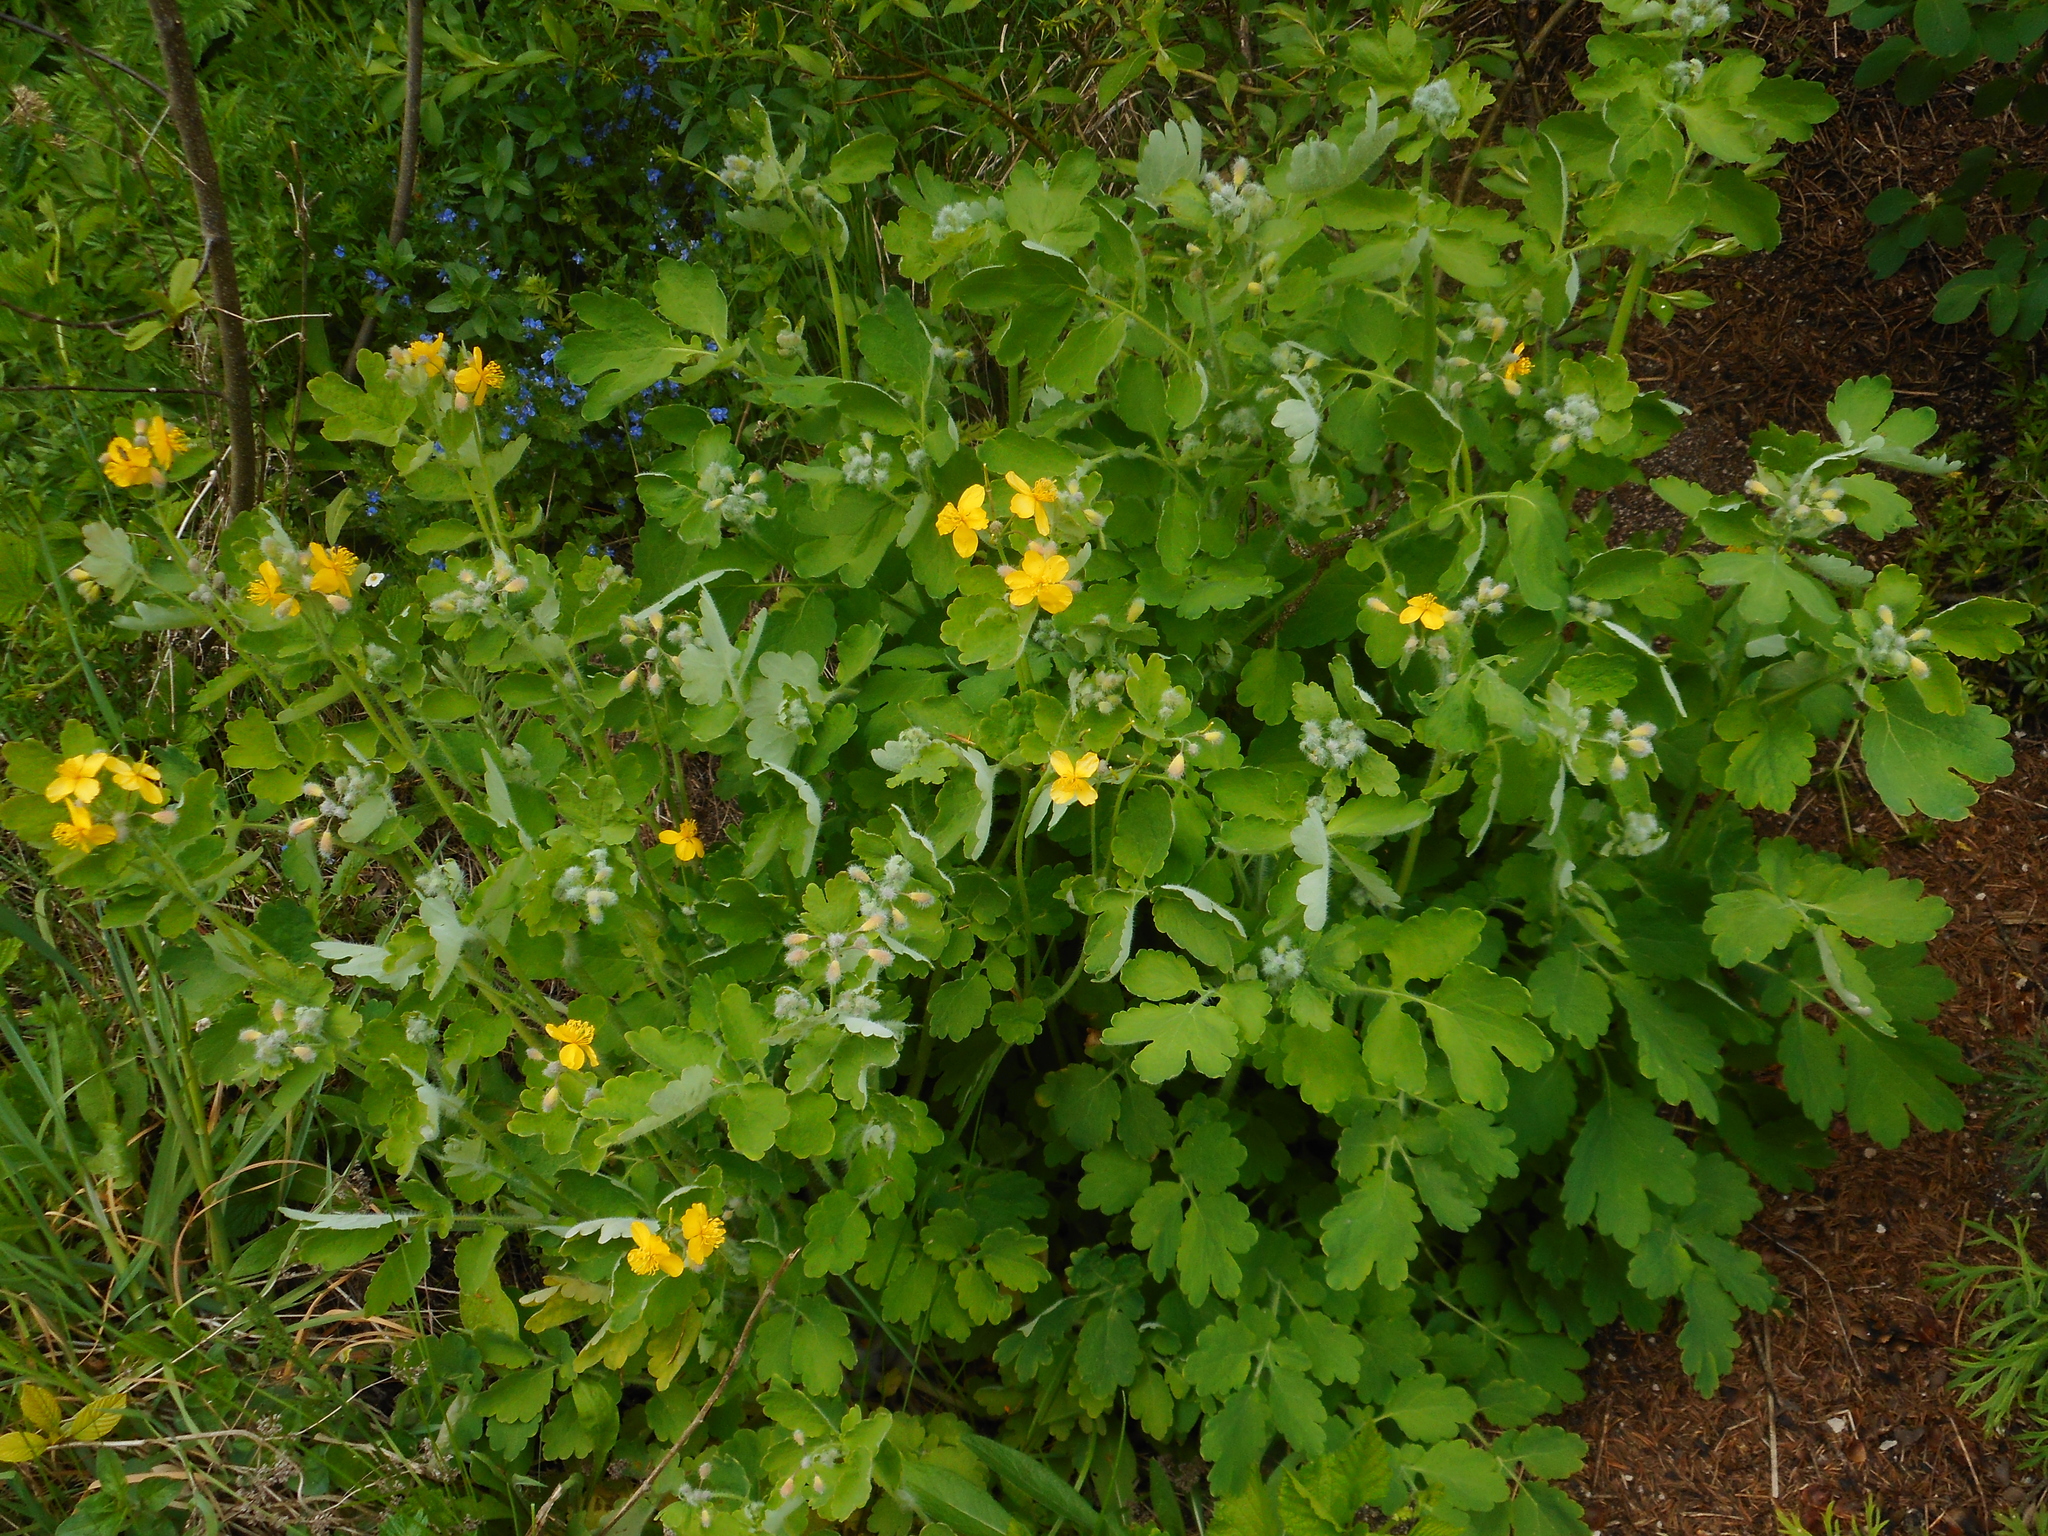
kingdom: Plantae
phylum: Tracheophyta
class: Magnoliopsida
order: Ranunculales
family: Papaveraceae
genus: Chelidonium
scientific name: Chelidonium majus
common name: Greater celandine
